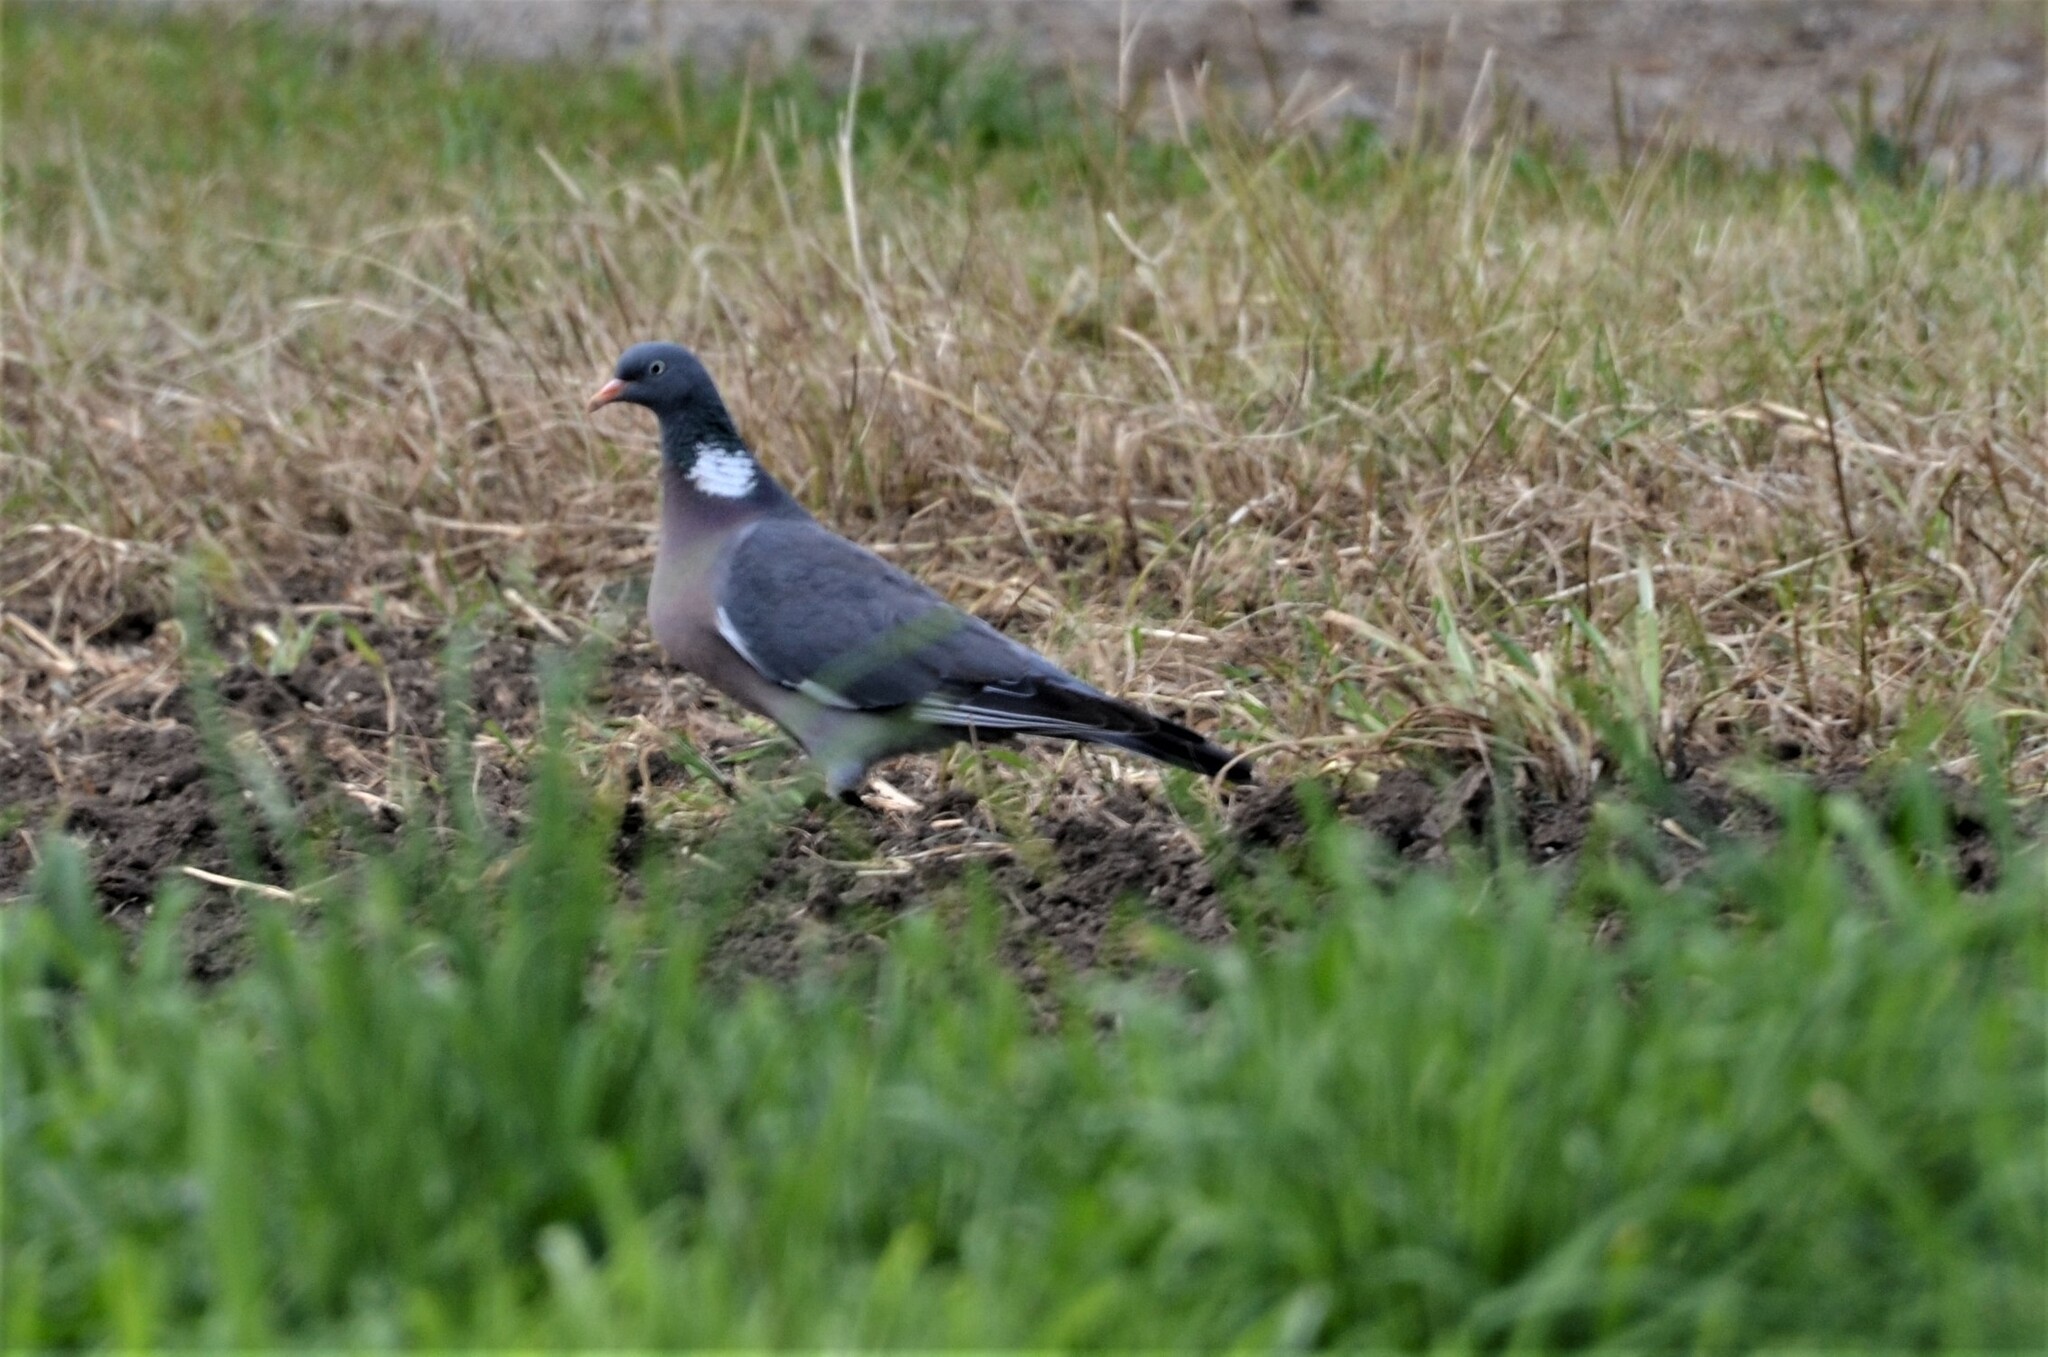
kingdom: Animalia
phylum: Chordata
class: Aves
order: Columbiformes
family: Columbidae
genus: Columba
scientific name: Columba palumbus
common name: Common wood pigeon
